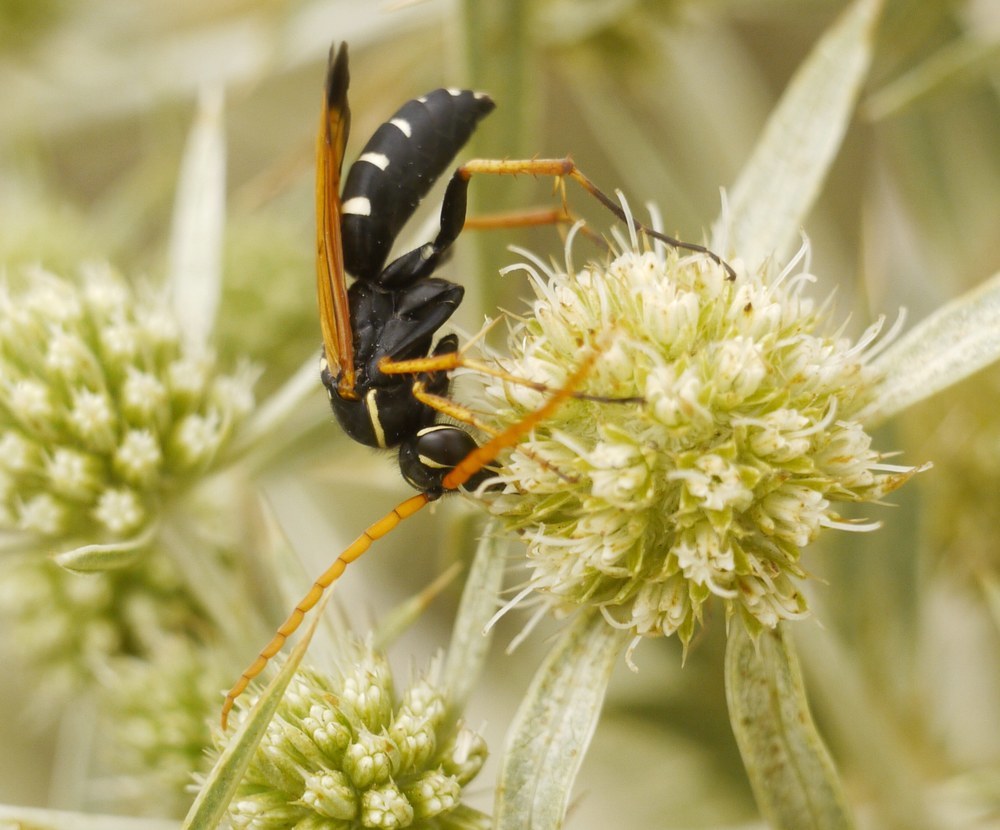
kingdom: Animalia
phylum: Arthropoda
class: Insecta
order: Hymenoptera
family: Pompilidae
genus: Parabatozonus
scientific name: Parabatozonus lacerticida
